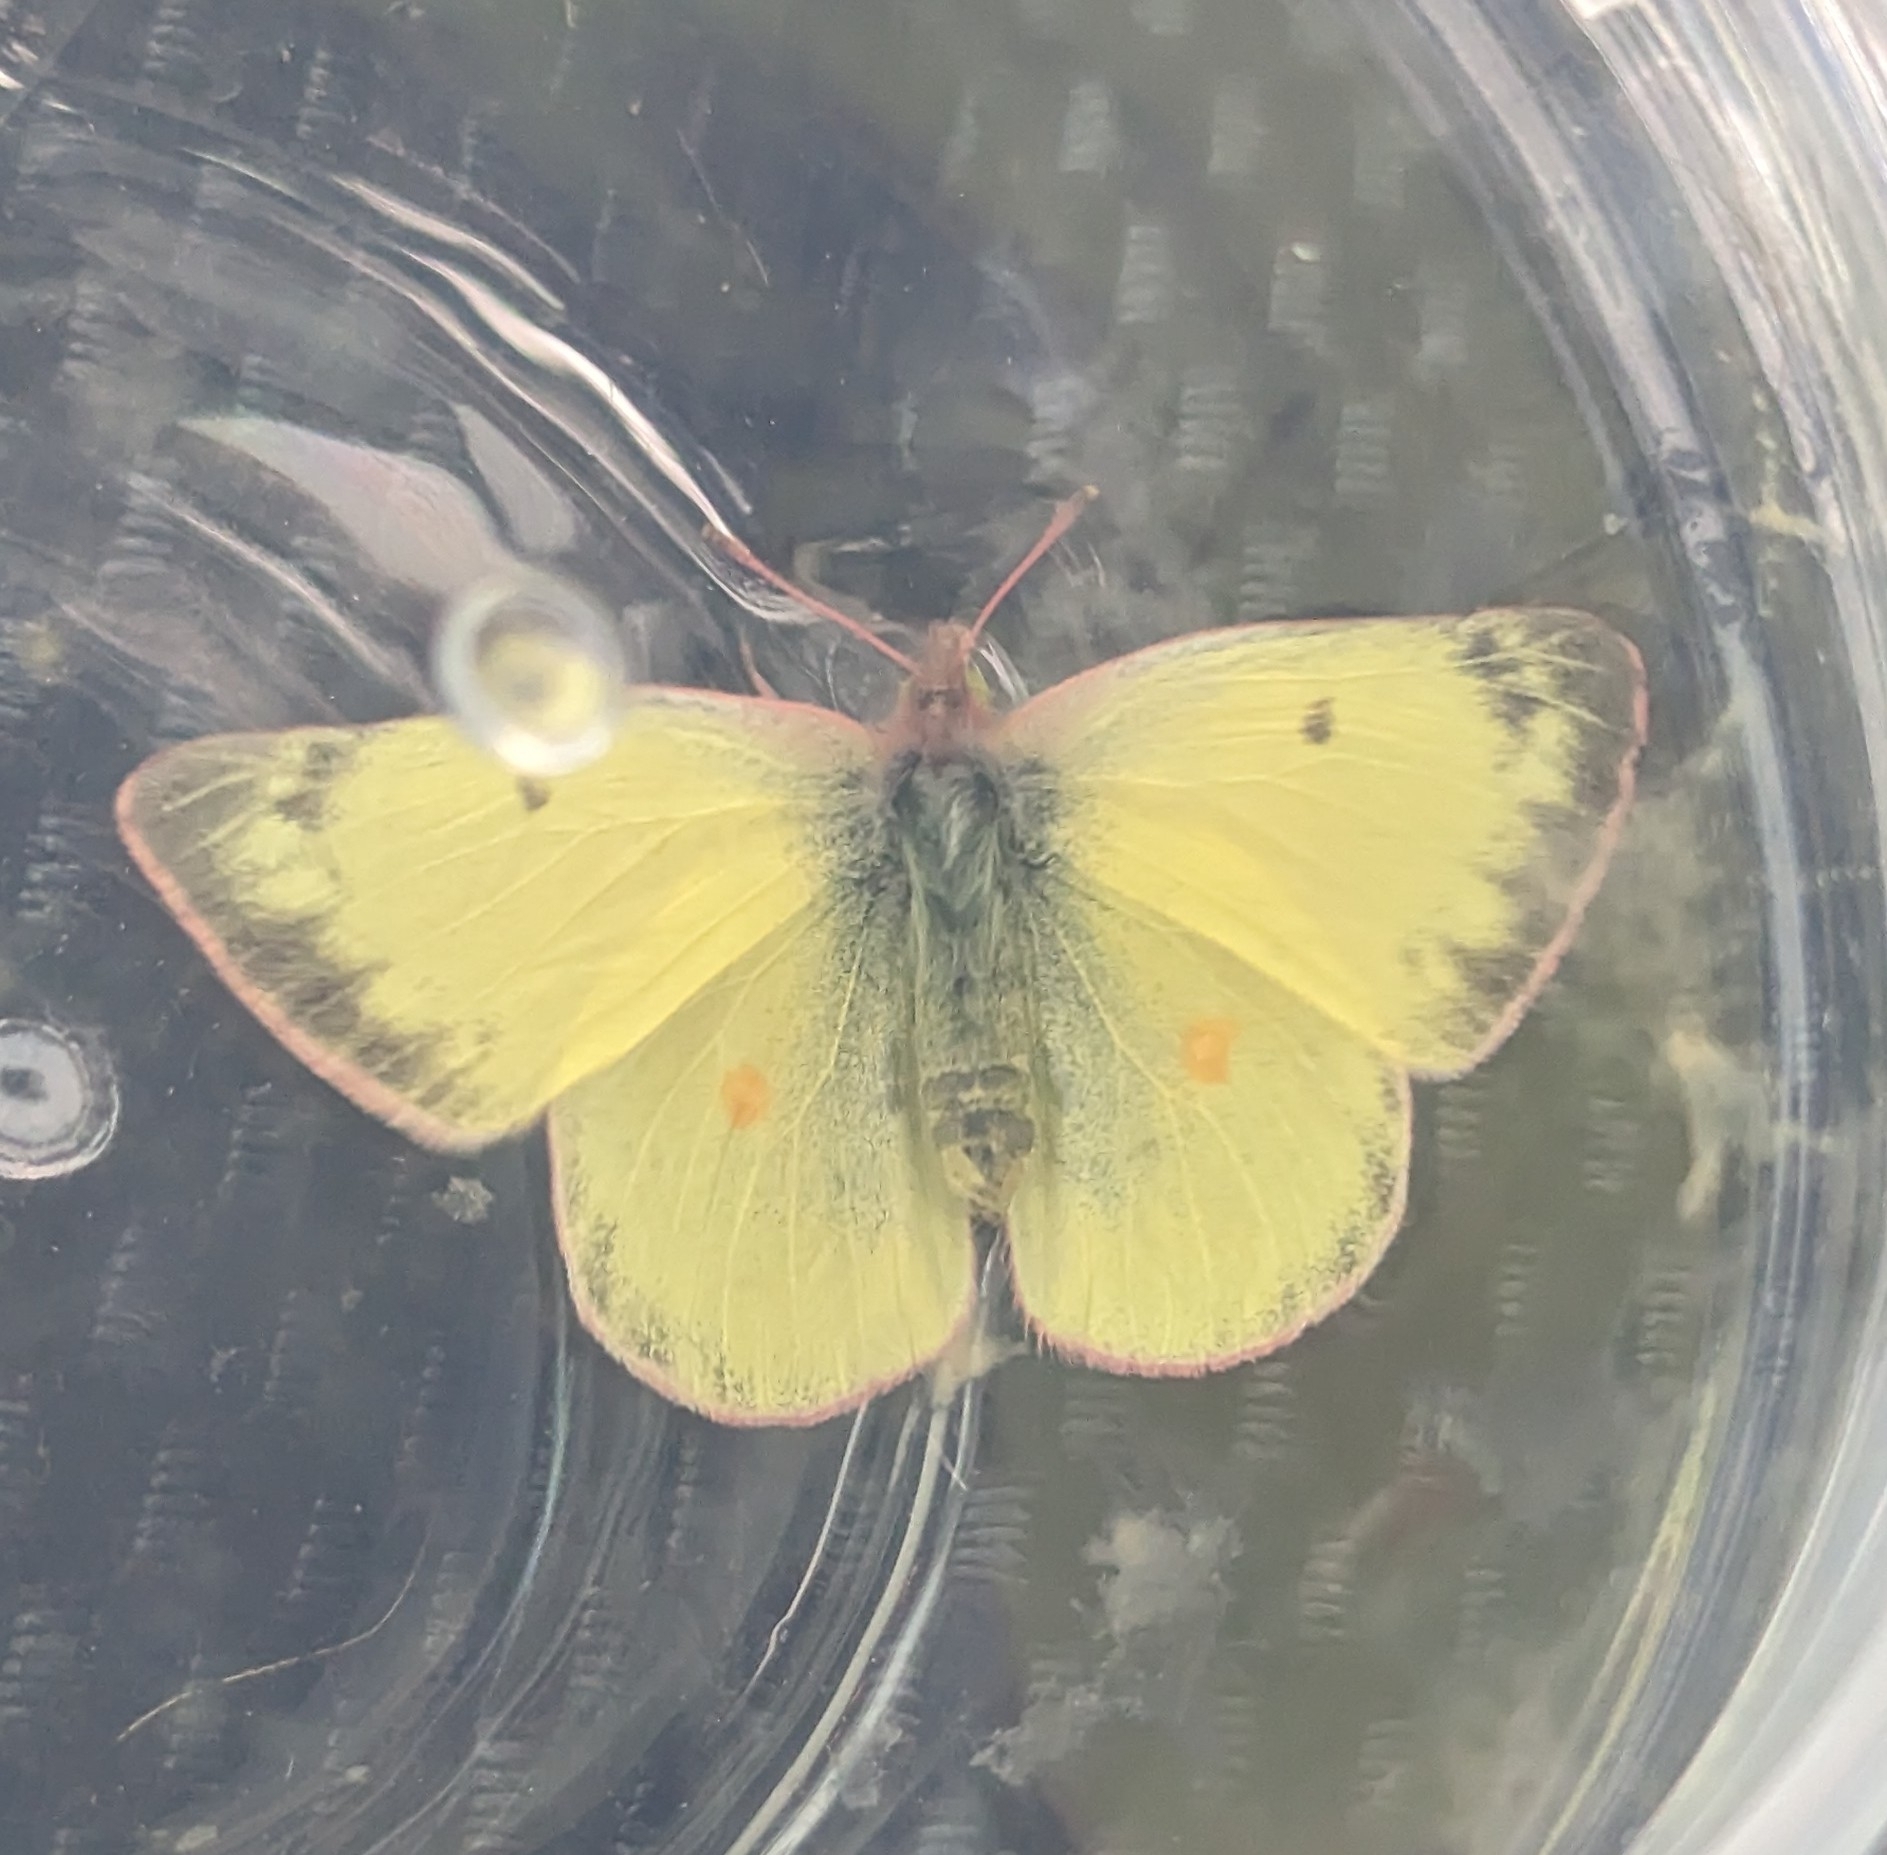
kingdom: Animalia
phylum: Arthropoda
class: Insecta
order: Lepidoptera
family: Pieridae
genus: Colias
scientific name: Colias philodice
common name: Clouded sulphur
